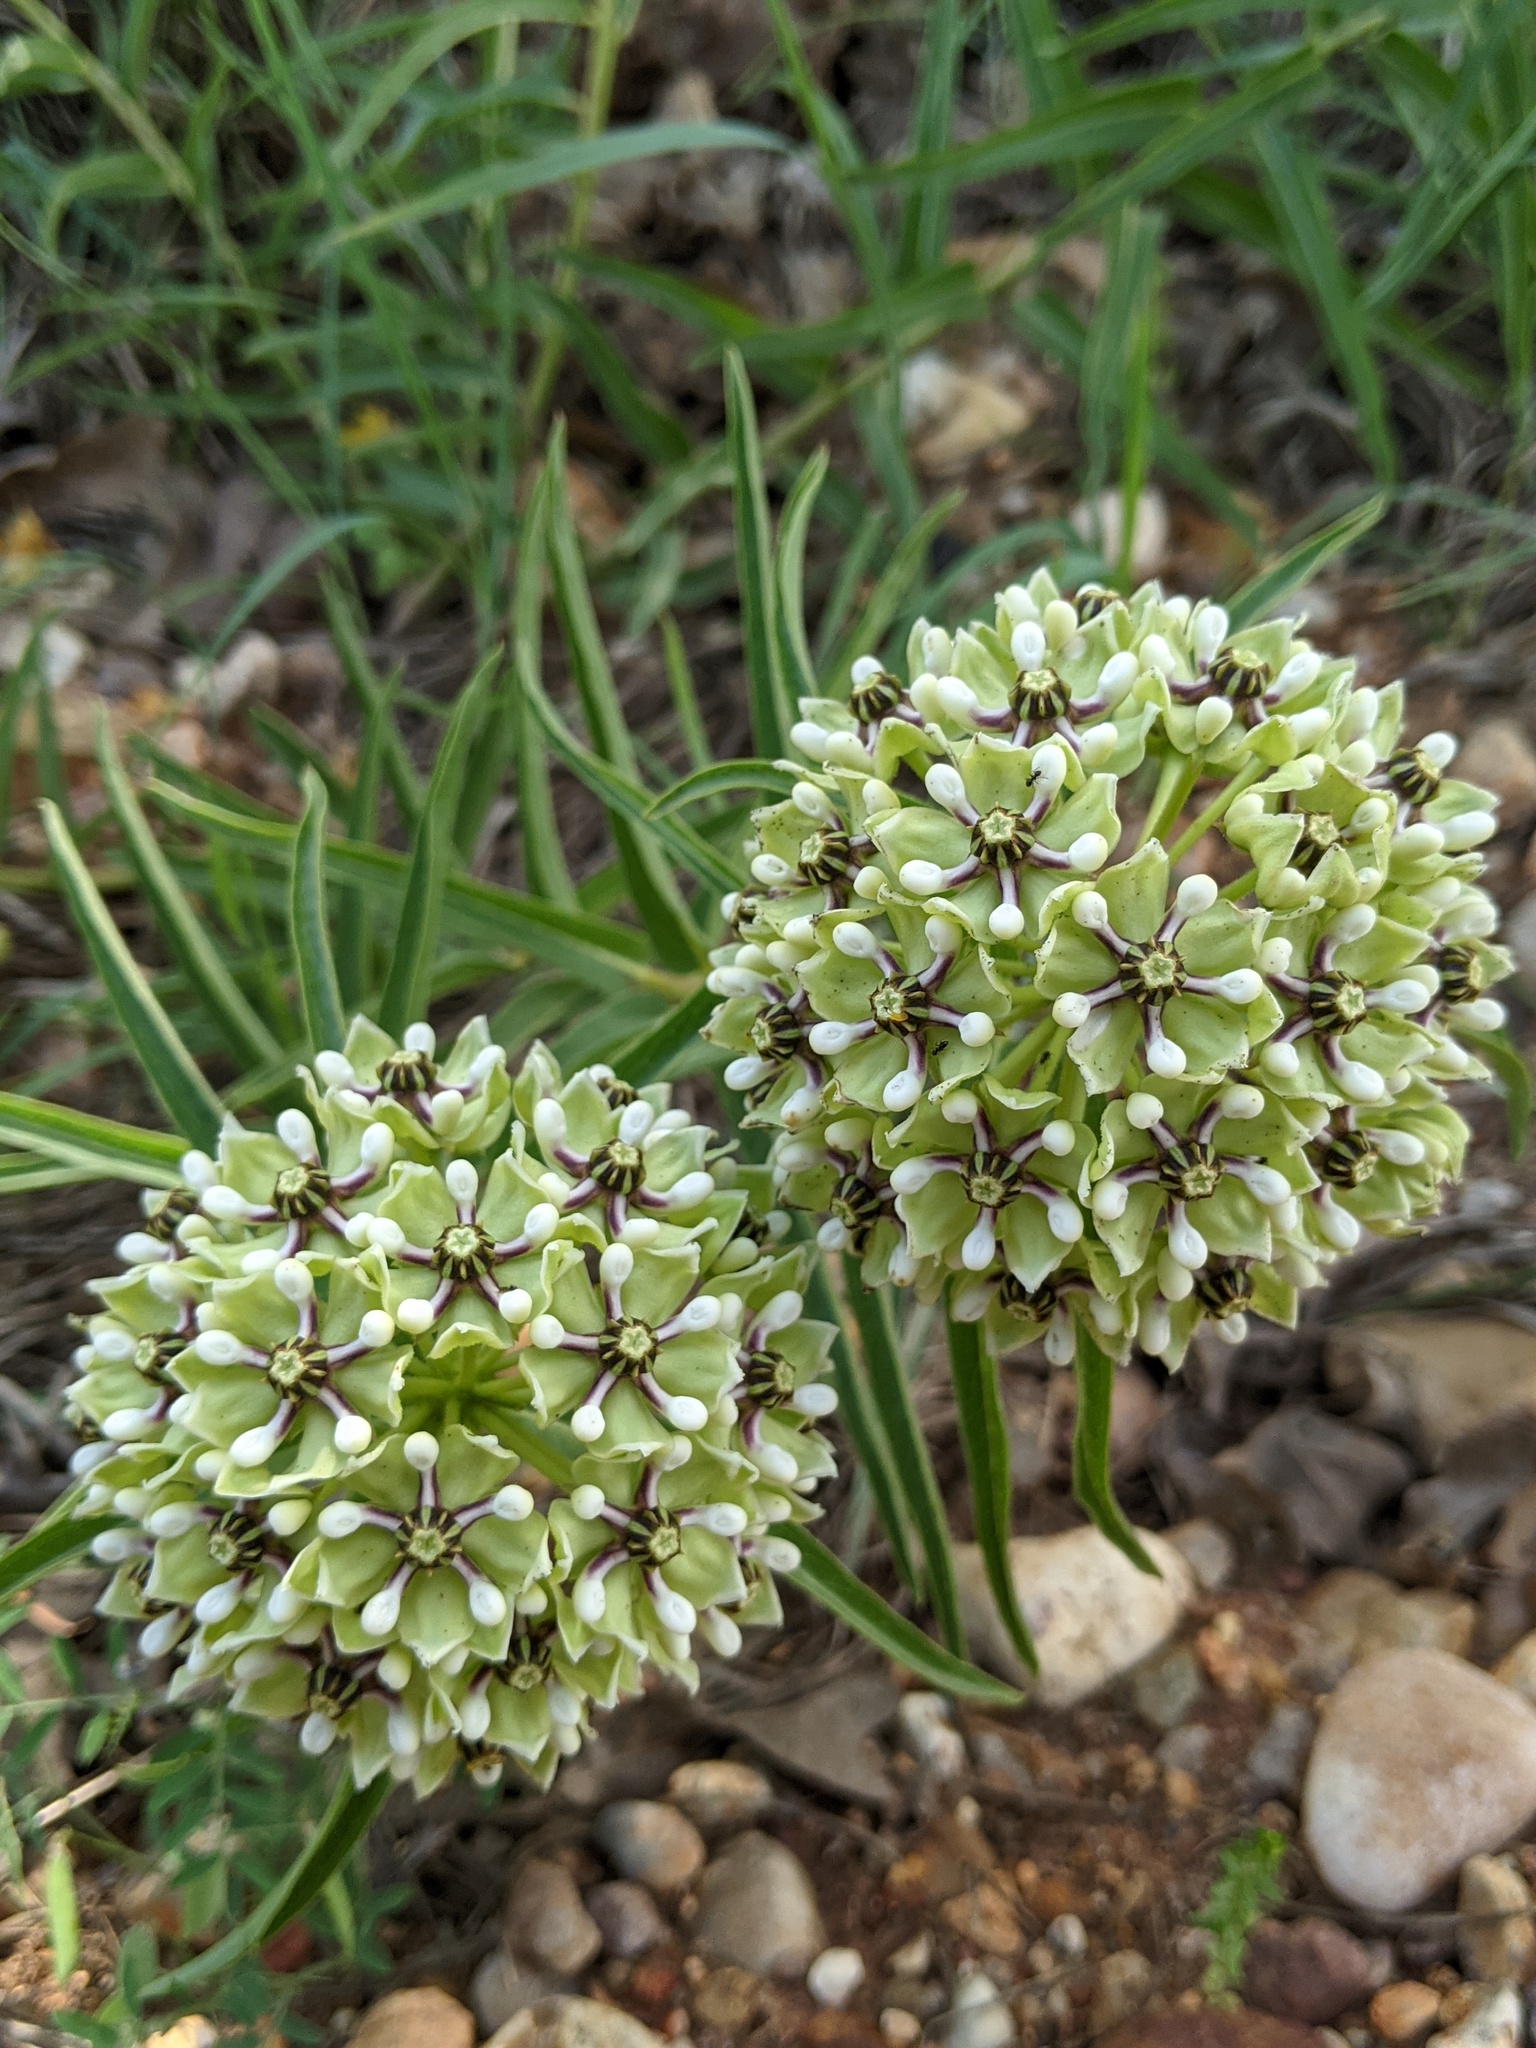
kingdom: Plantae
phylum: Tracheophyta
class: Magnoliopsida
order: Gentianales
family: Apocynaceae
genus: Asclepias
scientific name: Asclepias asperula
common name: Antelope horns
